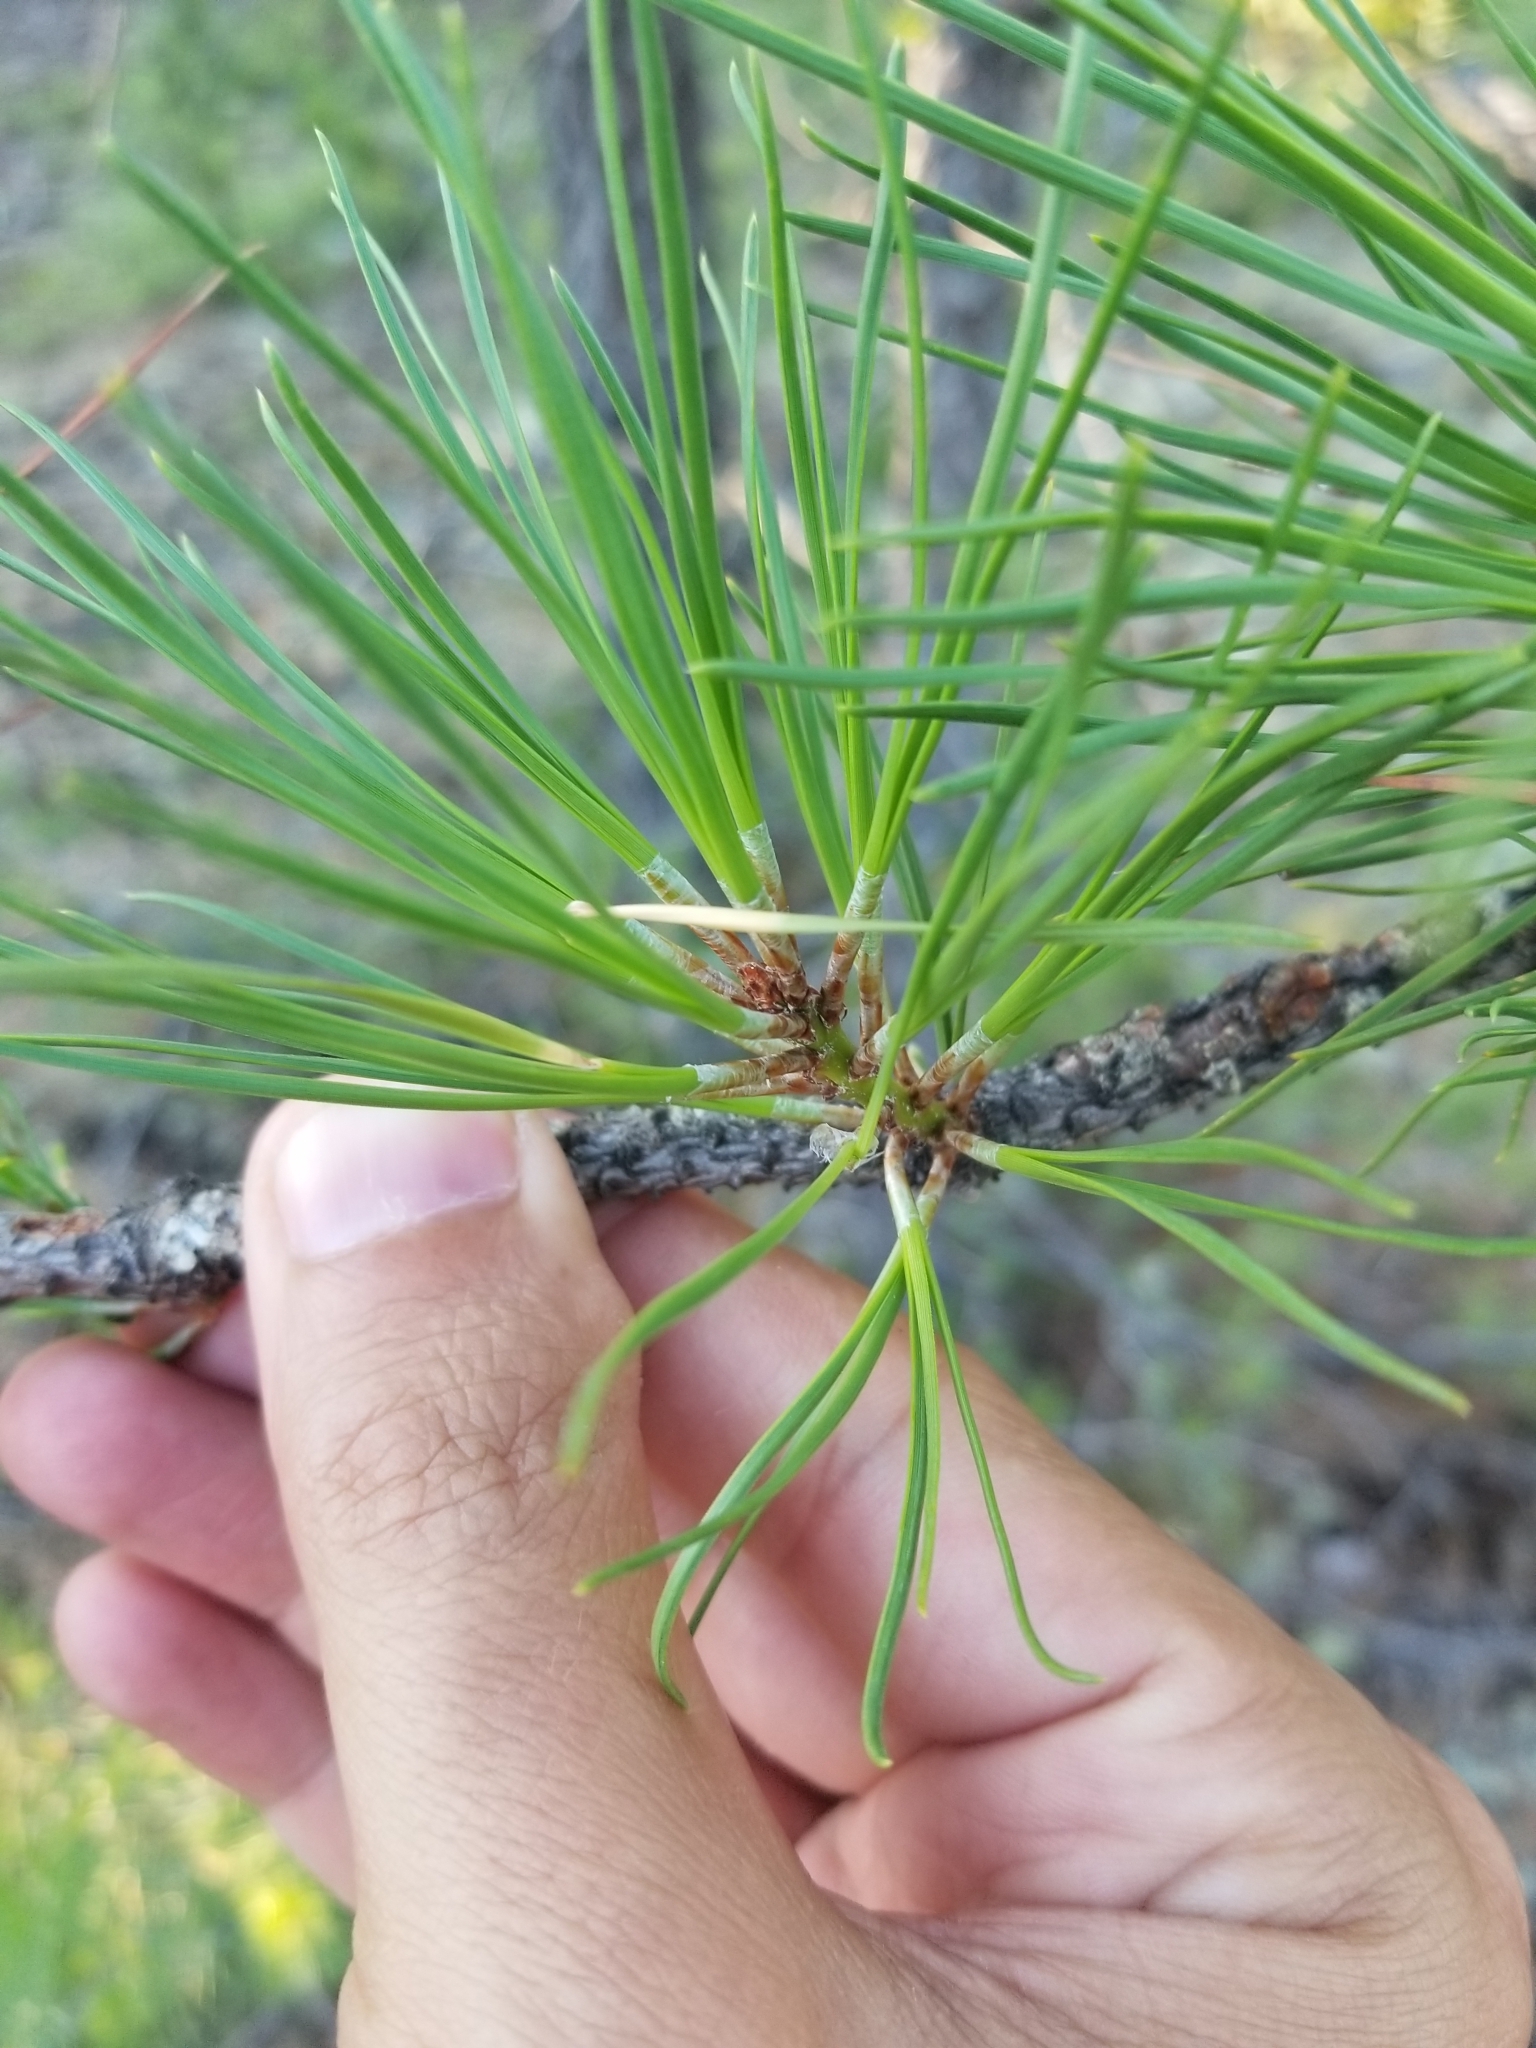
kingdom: Plantae
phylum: Tracheophyta
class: Pinopsida
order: Pinales
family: Pinaceae
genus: Pinus
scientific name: Pinus rigida
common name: Pitch pine
